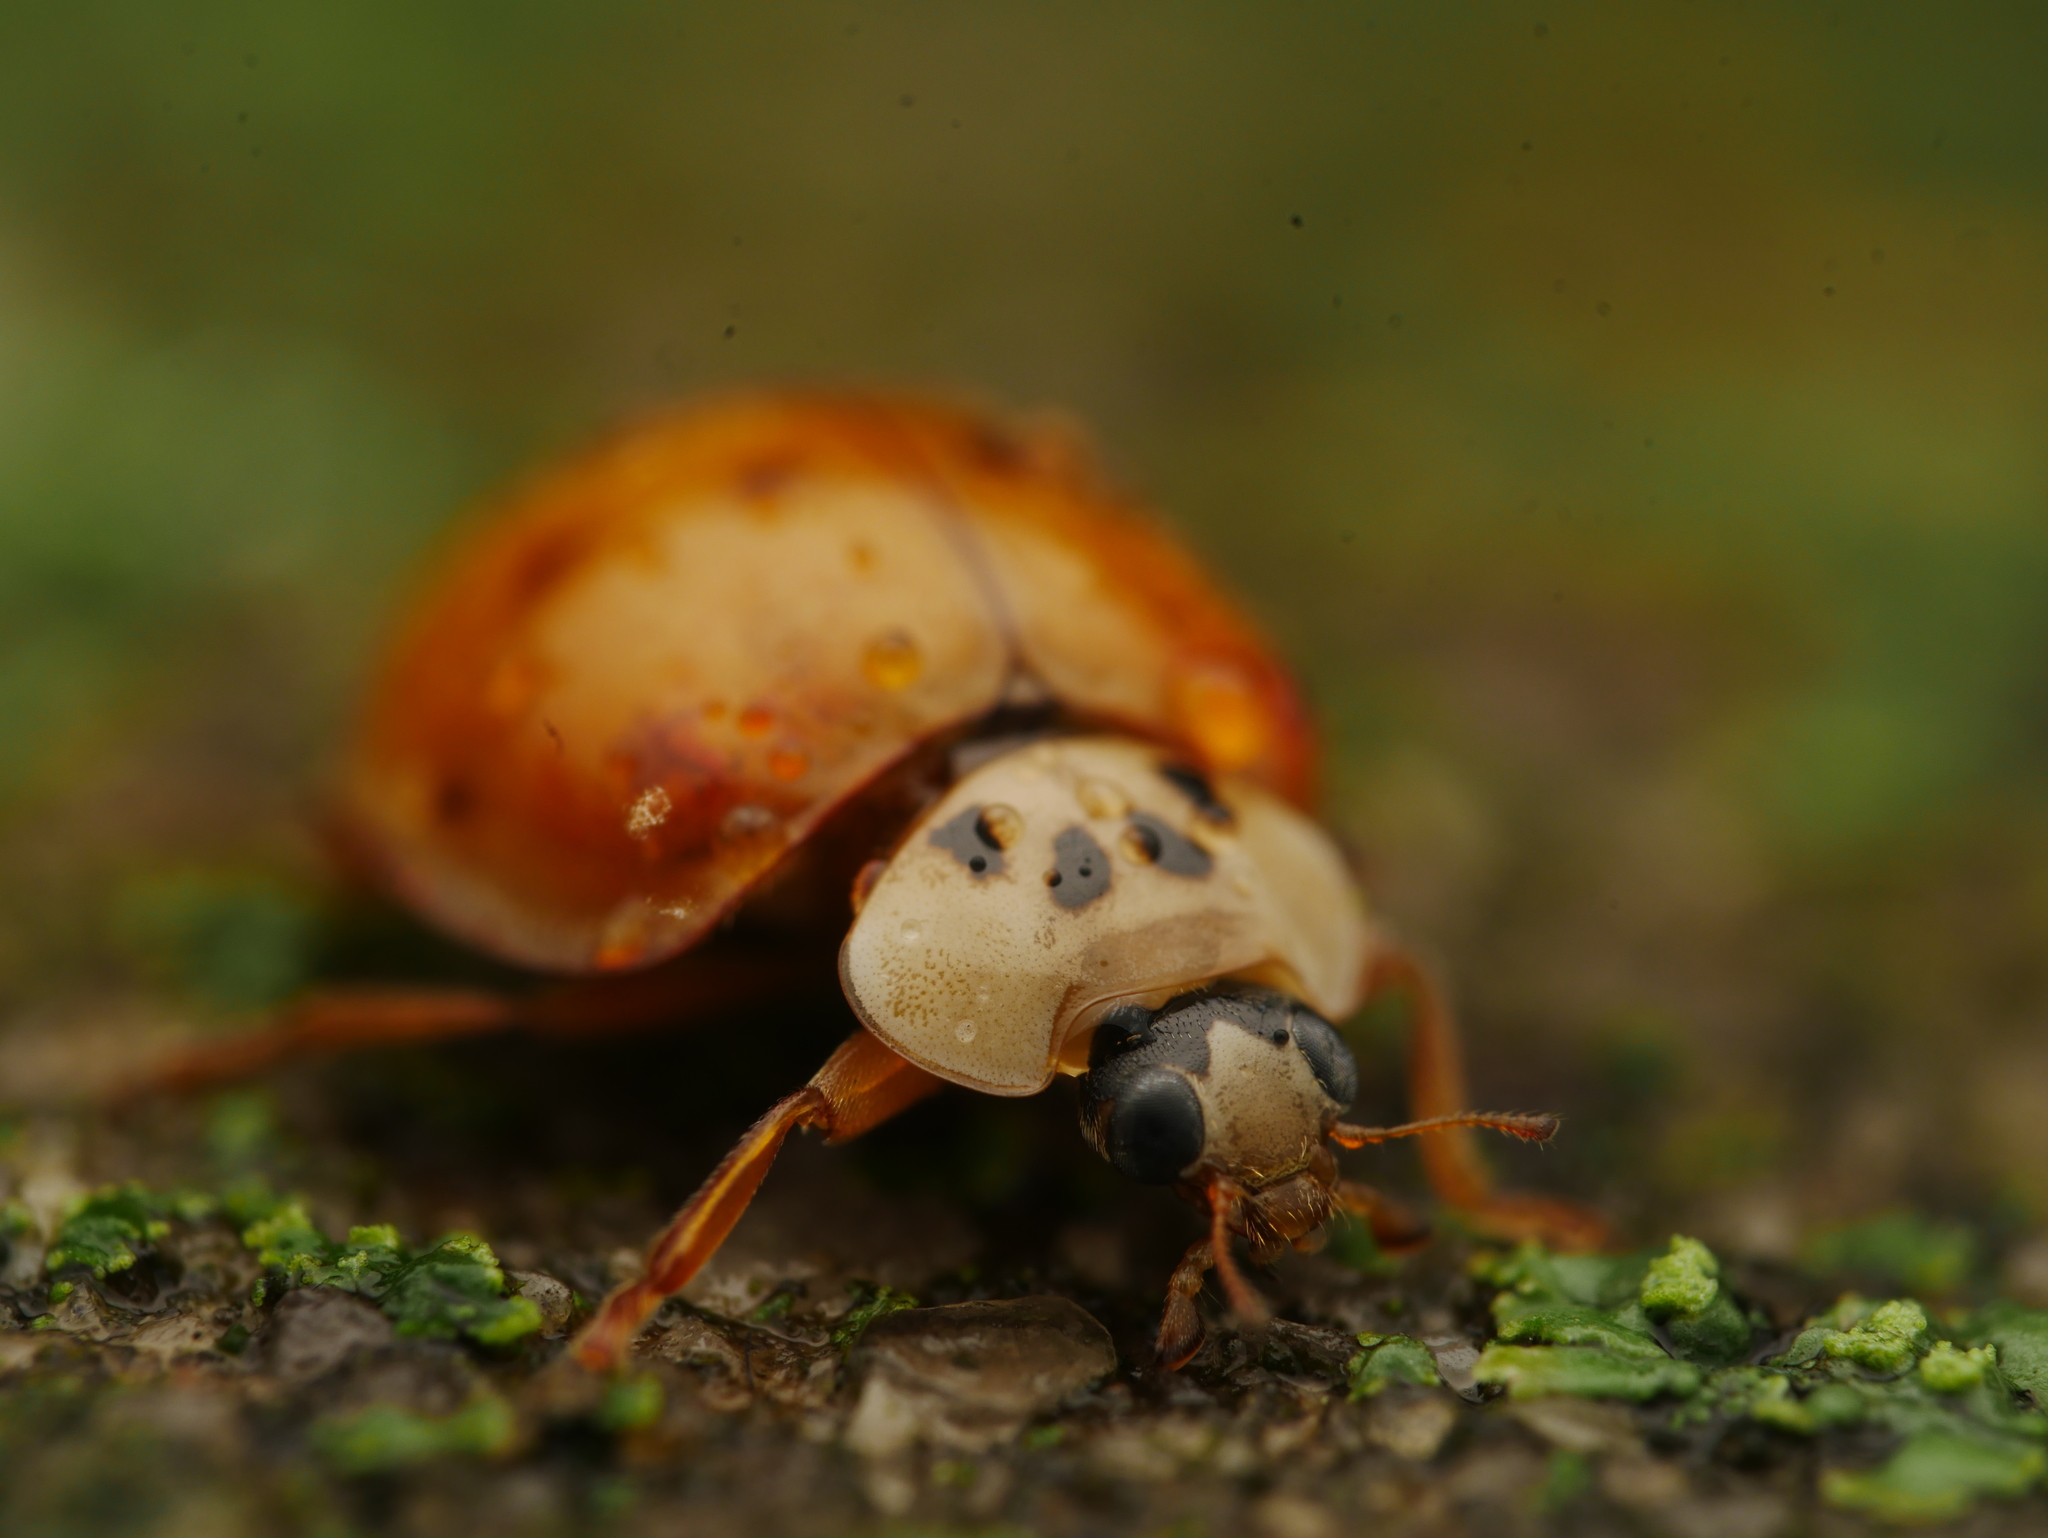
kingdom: Animalia
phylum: Arthropoda
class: Insecta
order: Coleoptera
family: Coccinellidae
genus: Harmonia
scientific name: Harmonia axyridis
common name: Harlequin ladybird
